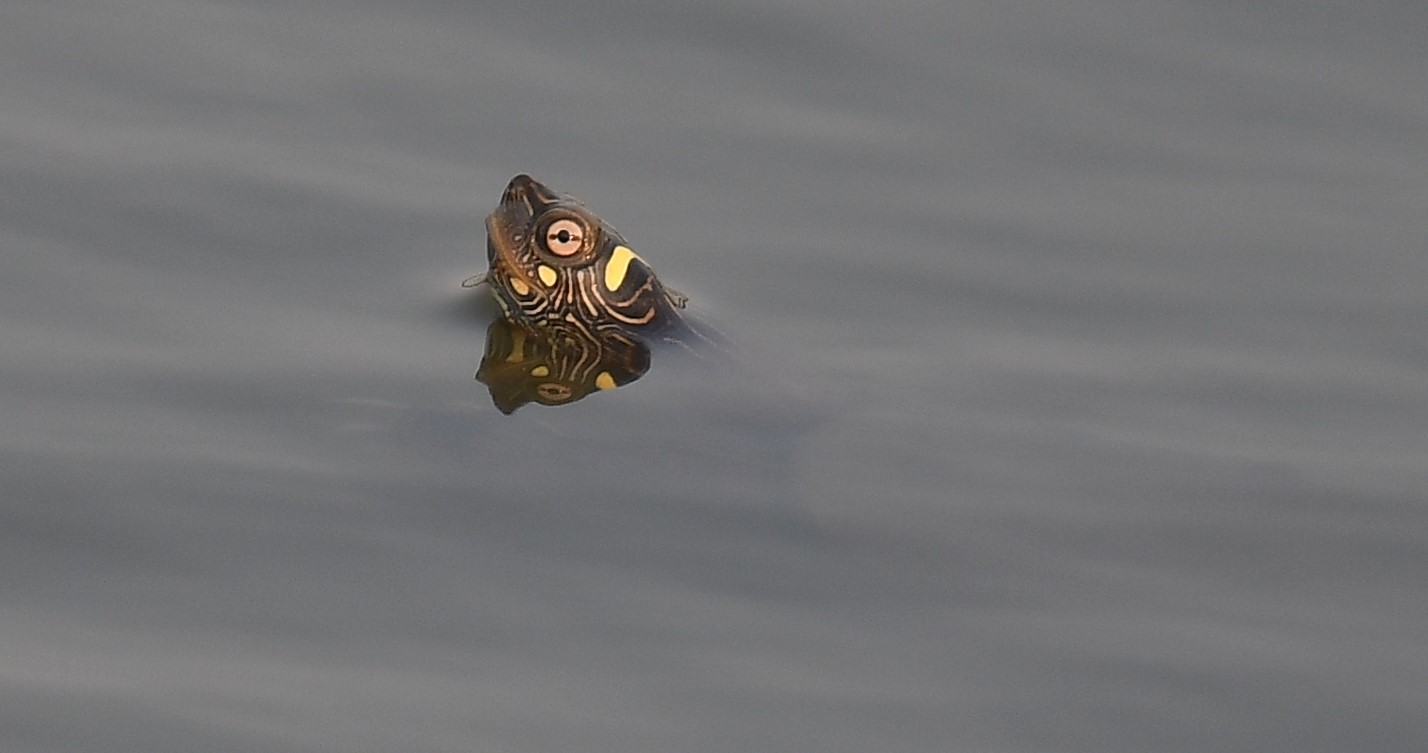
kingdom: Animalia
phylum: Chordata
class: Testudines
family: Emydidae
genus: Graptemys
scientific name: Graptemys ouachitensis
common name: Ouachita map turtle
